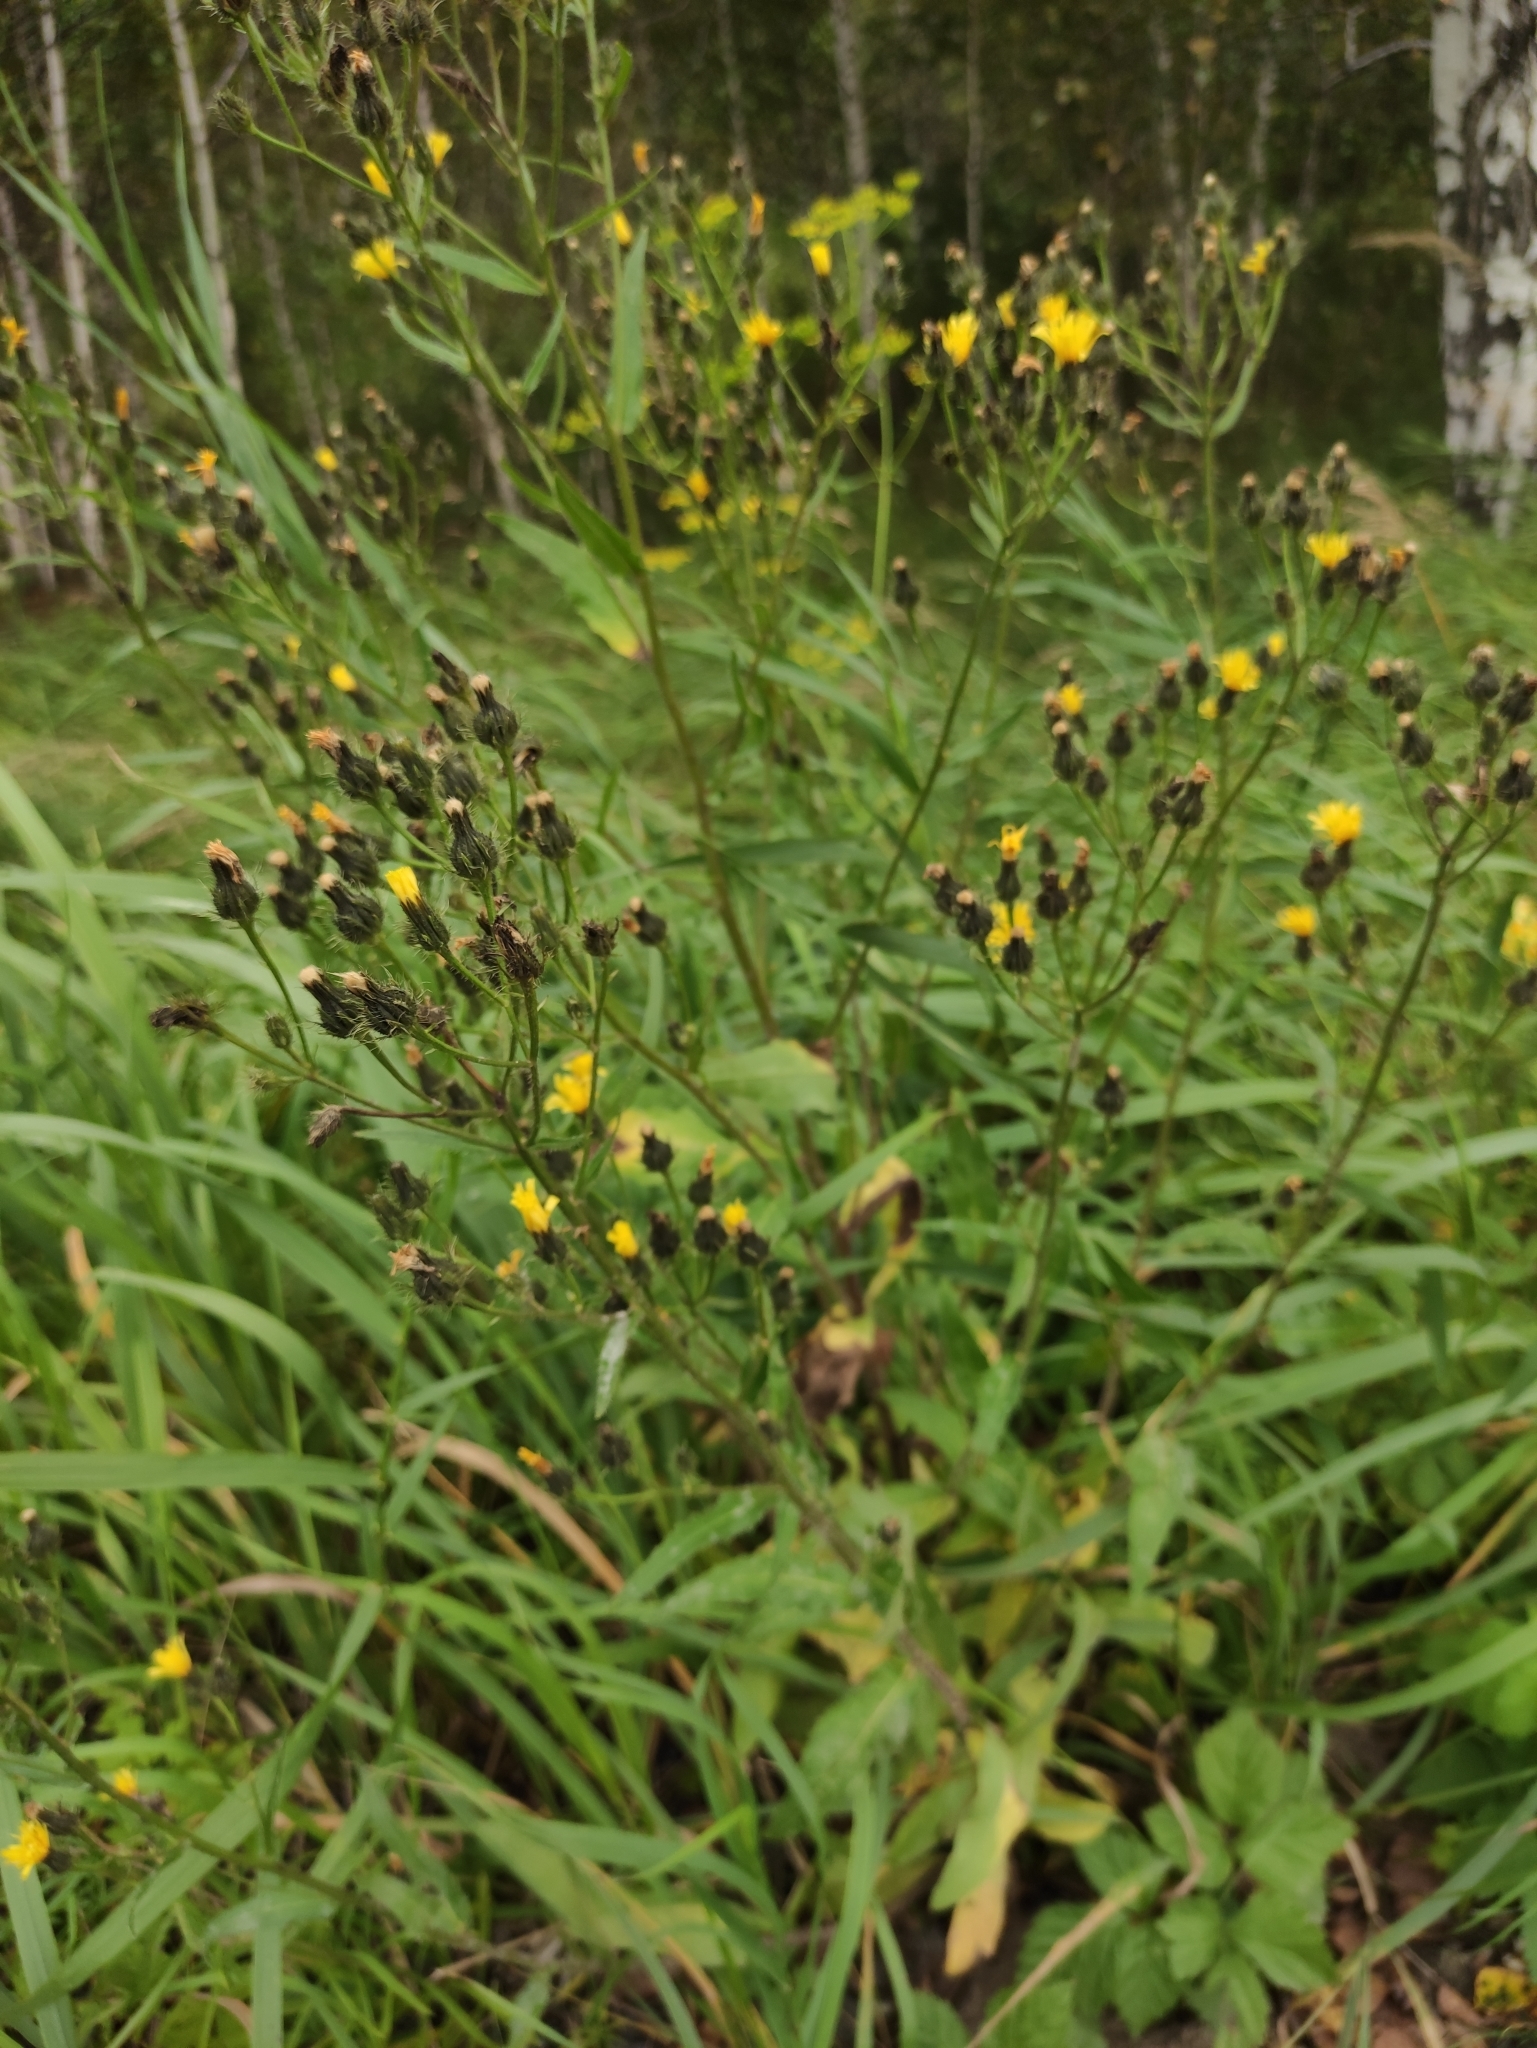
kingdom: Plantae
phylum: Tracheophyta
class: Magnoliopsida
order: Asterales
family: Asteraceae
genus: Picris
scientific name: Picris davurica
